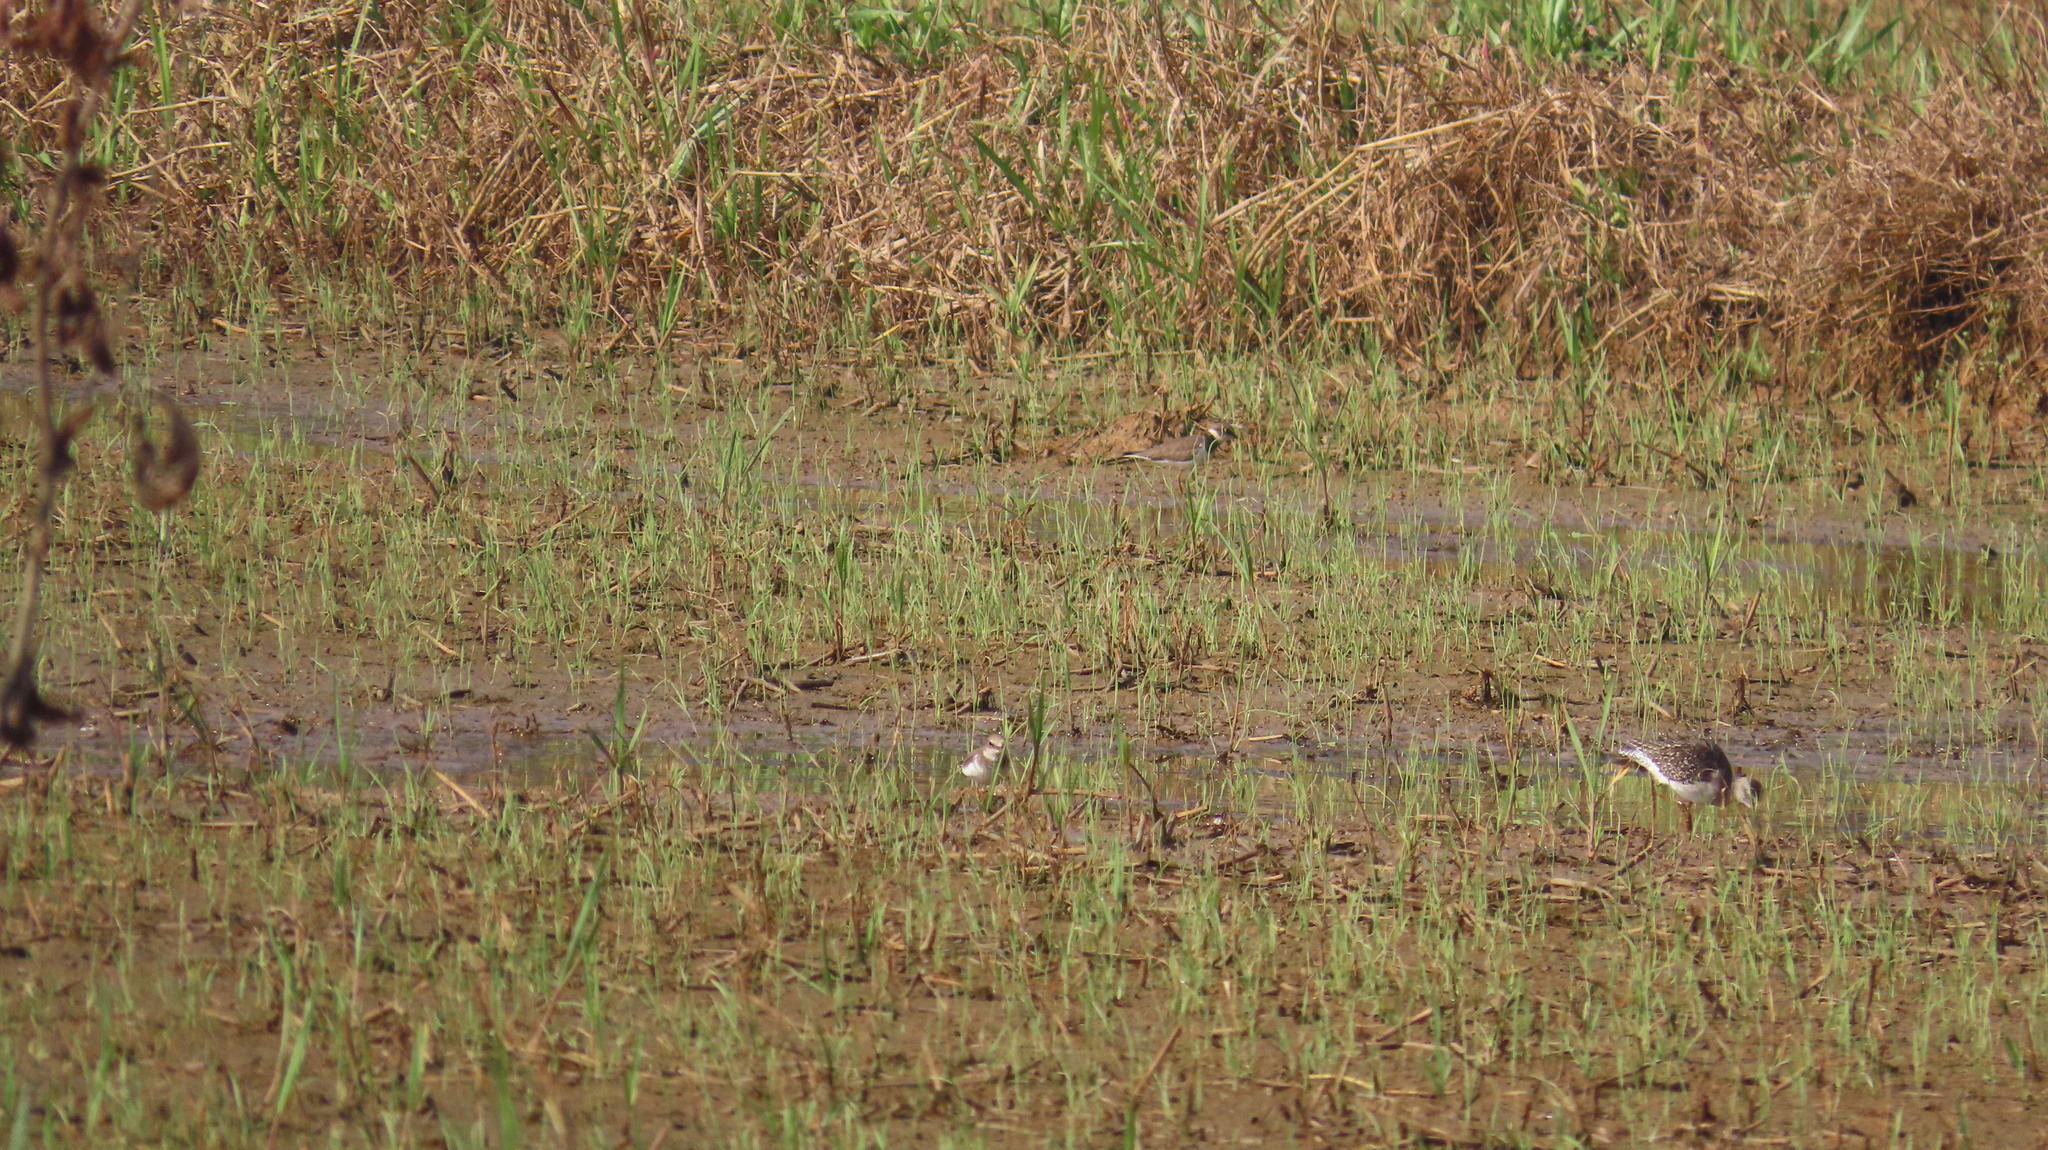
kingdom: Animalia
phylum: Chordata
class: Aves
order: Charadriiformes
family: Scolopacidae
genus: Tringa
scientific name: Tringa glareola
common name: Wood sandpiper
